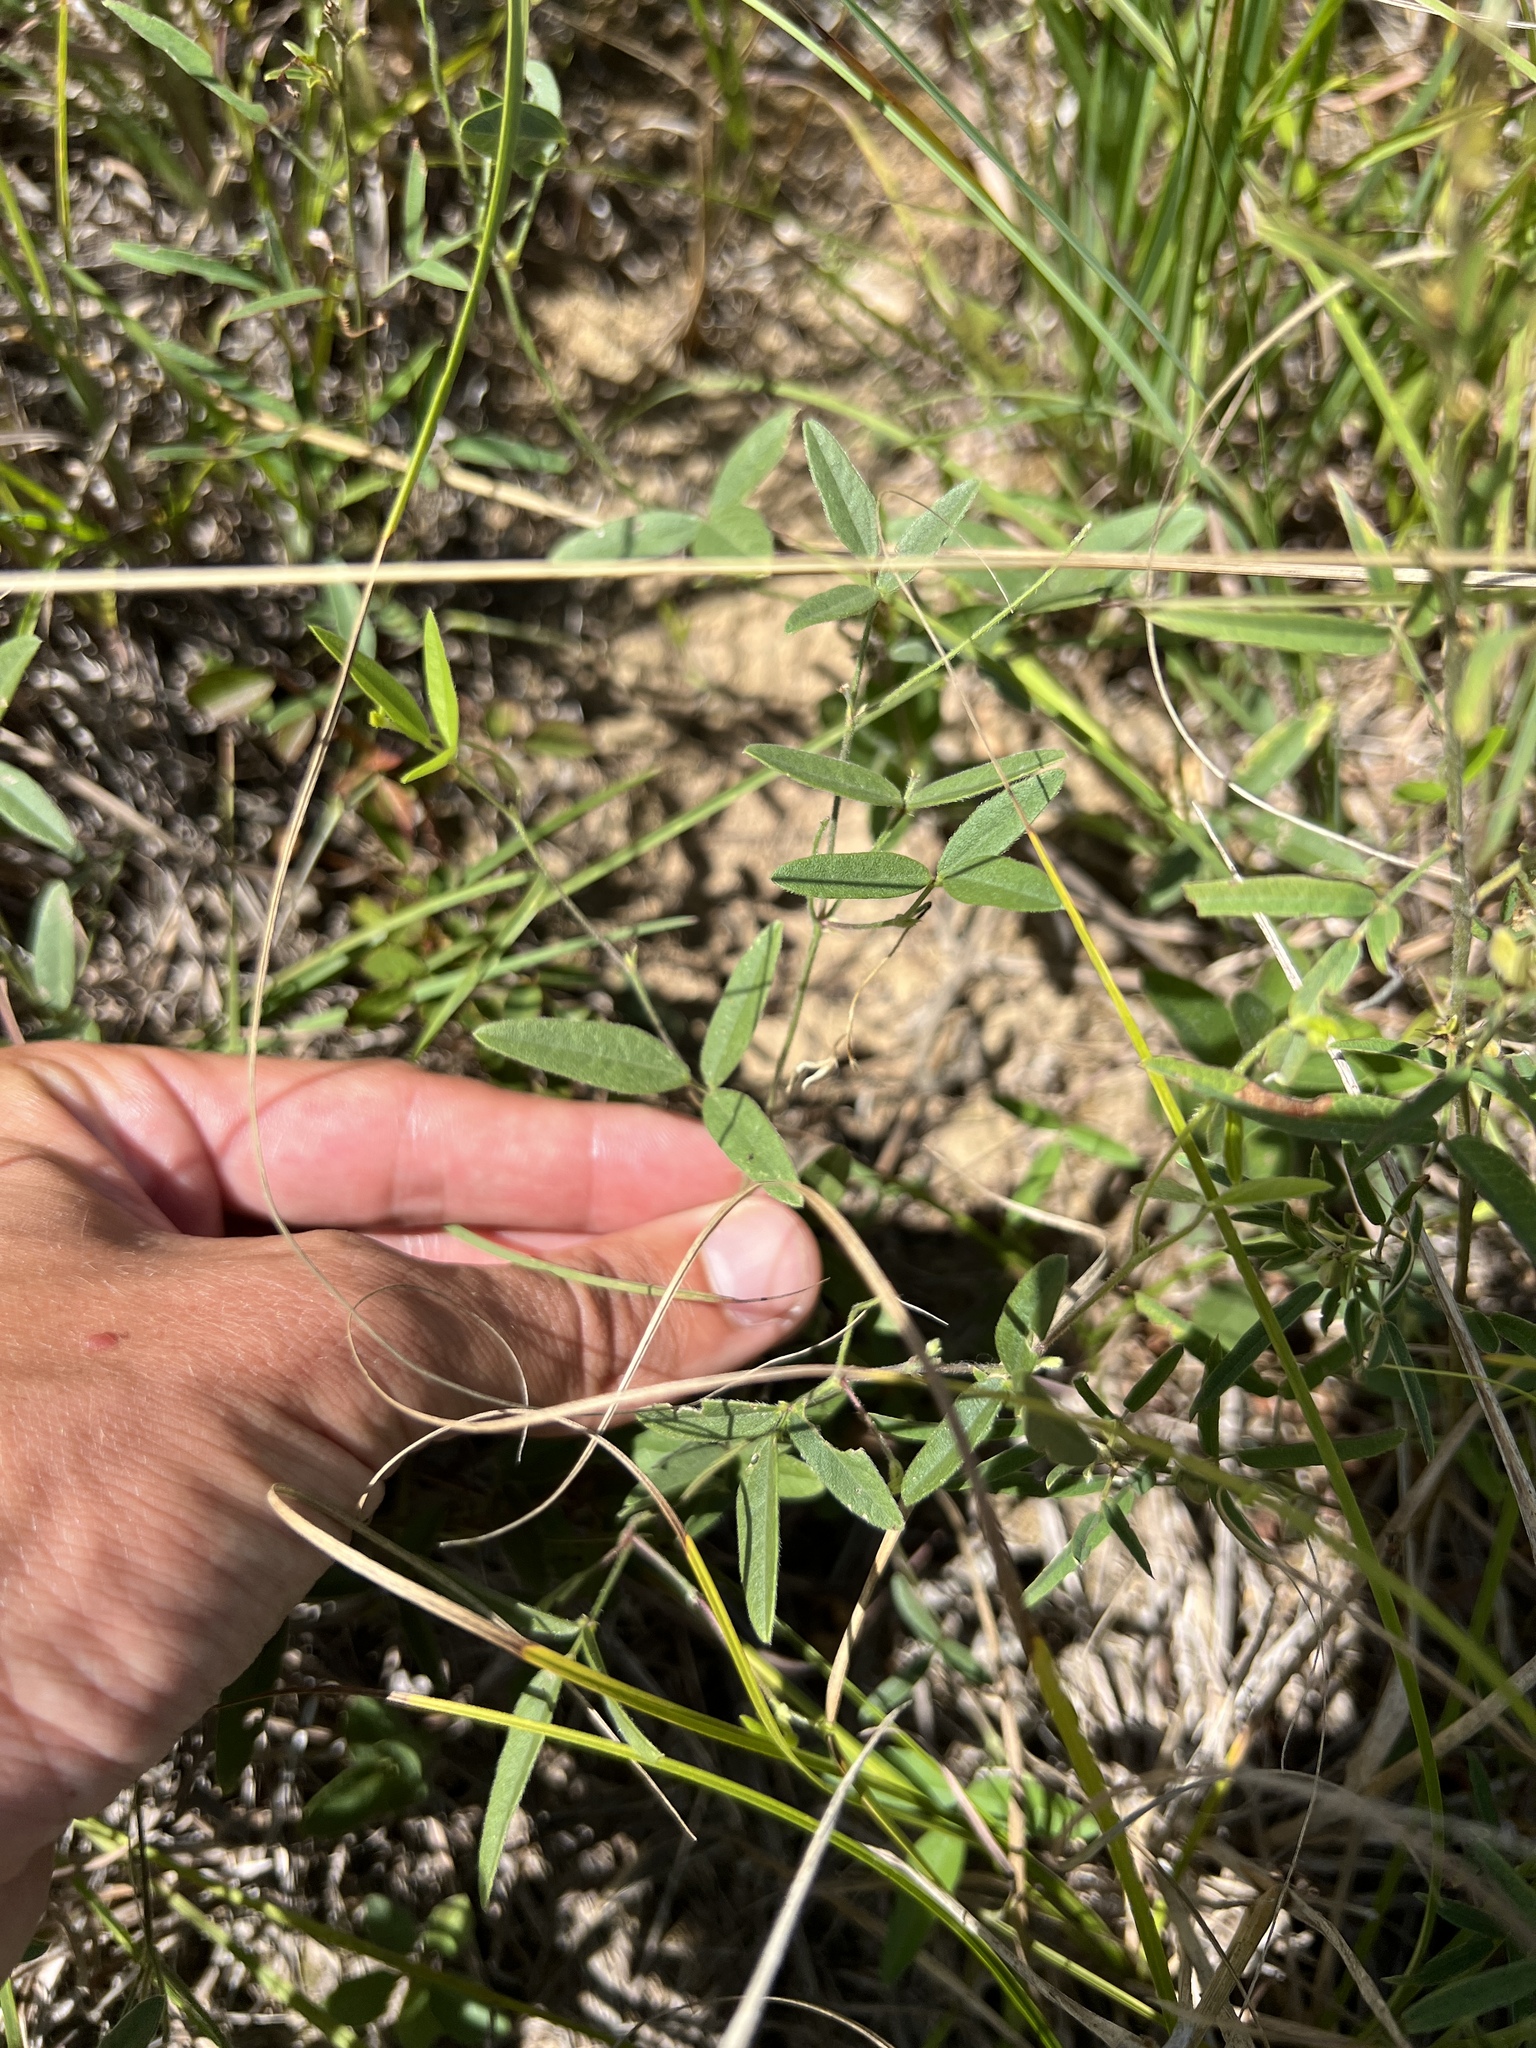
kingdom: Plantae
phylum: Tracheophyta
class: Magnoliopsida
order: Fabales
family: Fabaceae
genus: Strophostyles
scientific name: Strophostyles leiosperma
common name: Smooth-seed wild bean
